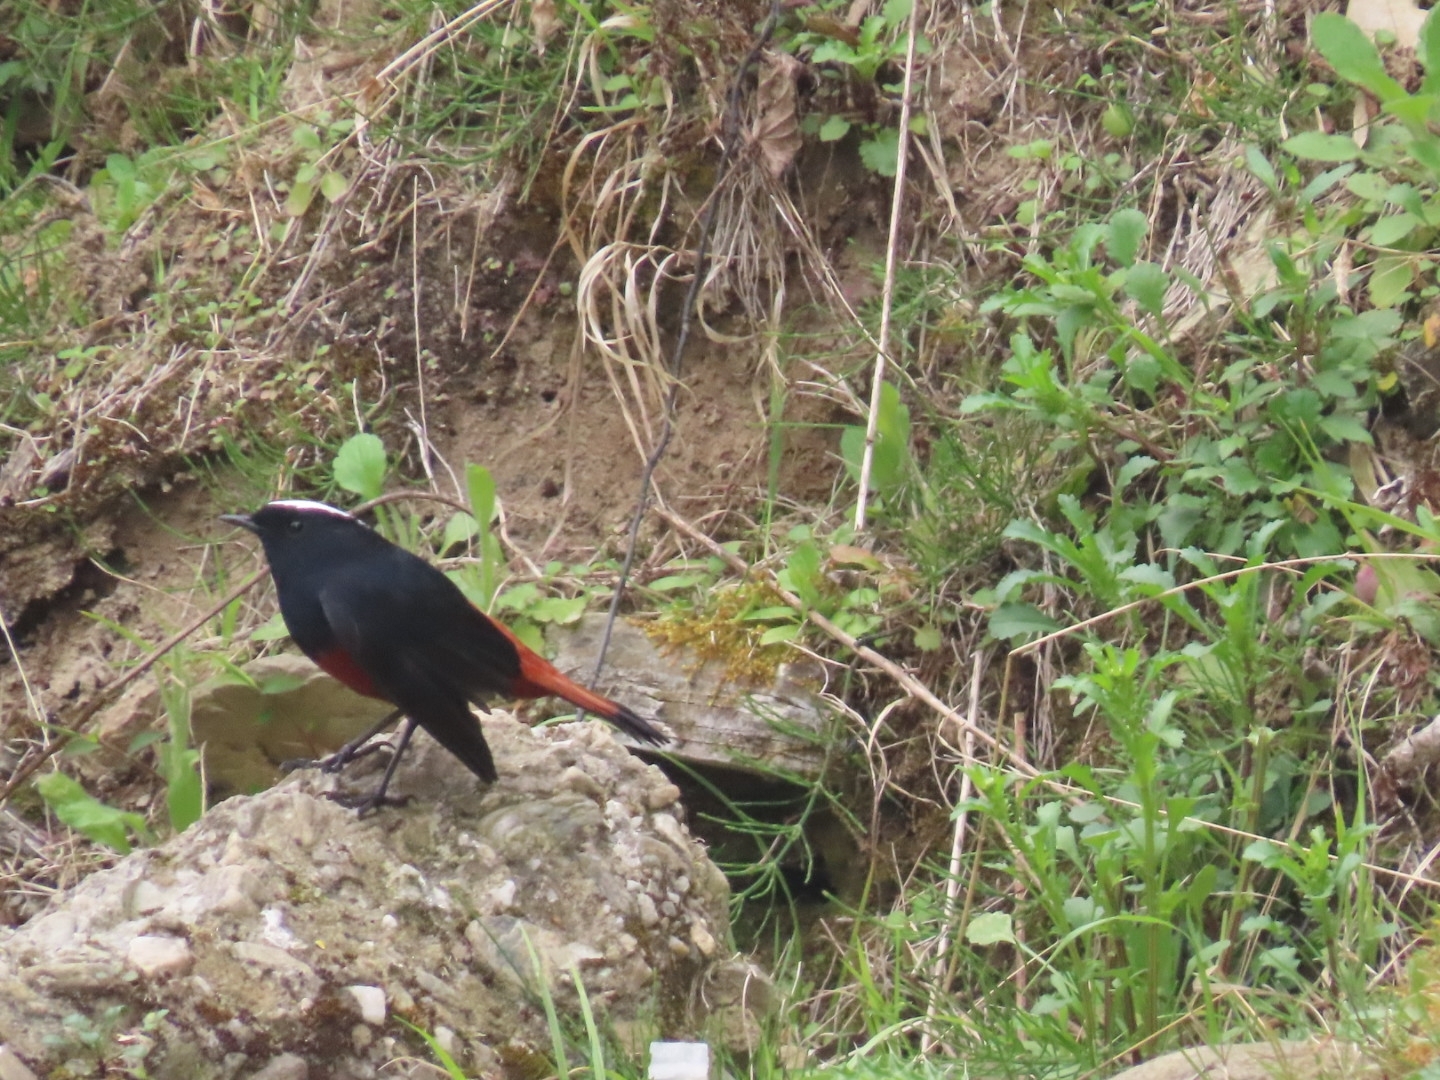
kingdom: Animalia
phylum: Chordata
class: Aves
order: Passeriformes
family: Muscicapidae
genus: Chaimarrornis
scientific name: Chaimarrornis leucocephalus
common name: White-capped redstart
